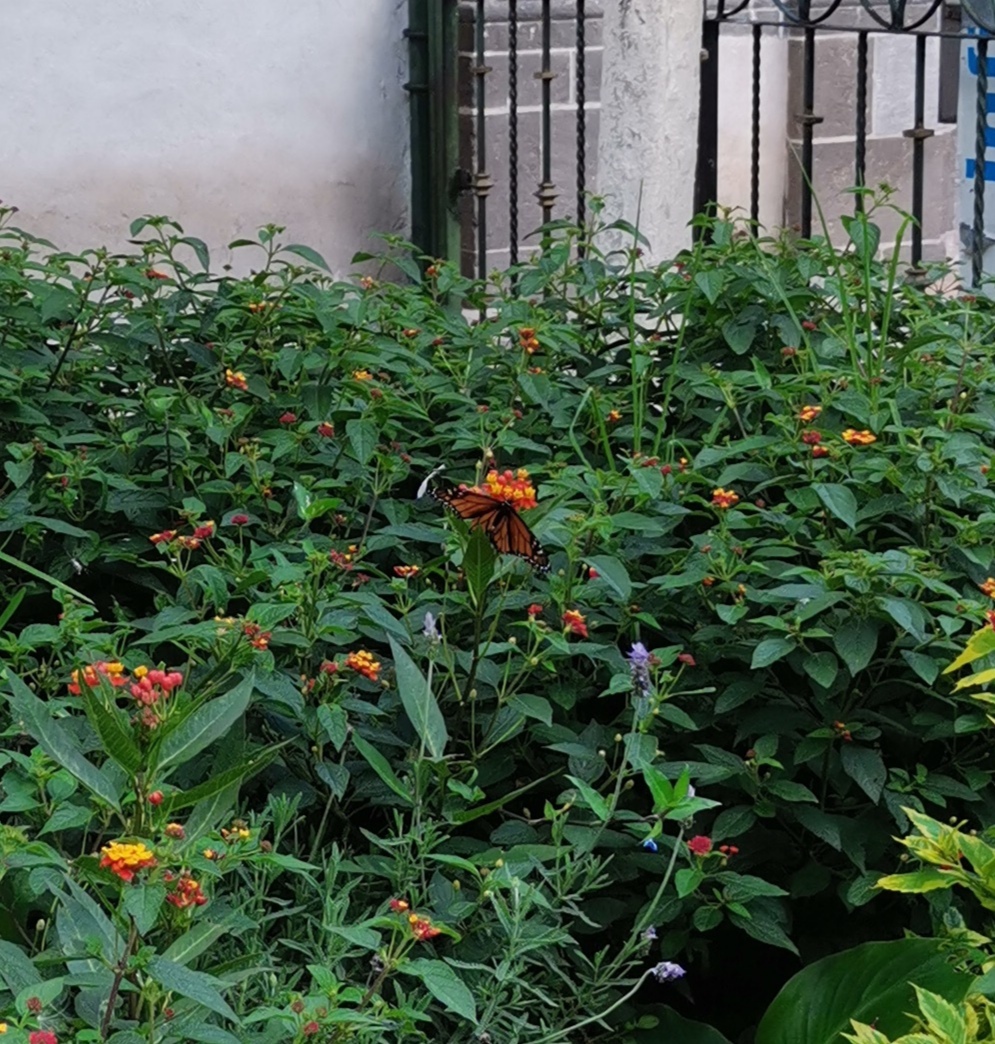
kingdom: Animalia
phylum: Arthropoda
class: Insecta
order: Lepidoptera
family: Nymphalidae
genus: Danaus
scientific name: Danaus plexippus
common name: Monarch
